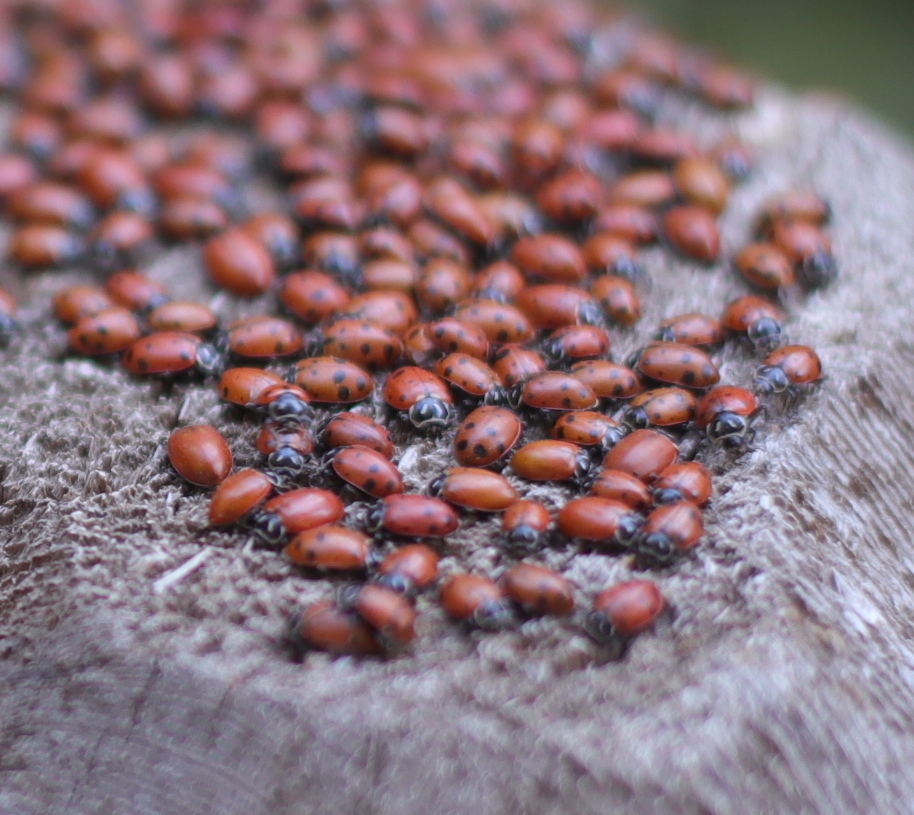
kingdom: Animalia
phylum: Arthropoda
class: Insecta
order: Coleoptera
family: Coccinellidae
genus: Hippodamia
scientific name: Hippodamia convergens
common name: Convergent lady beetle
